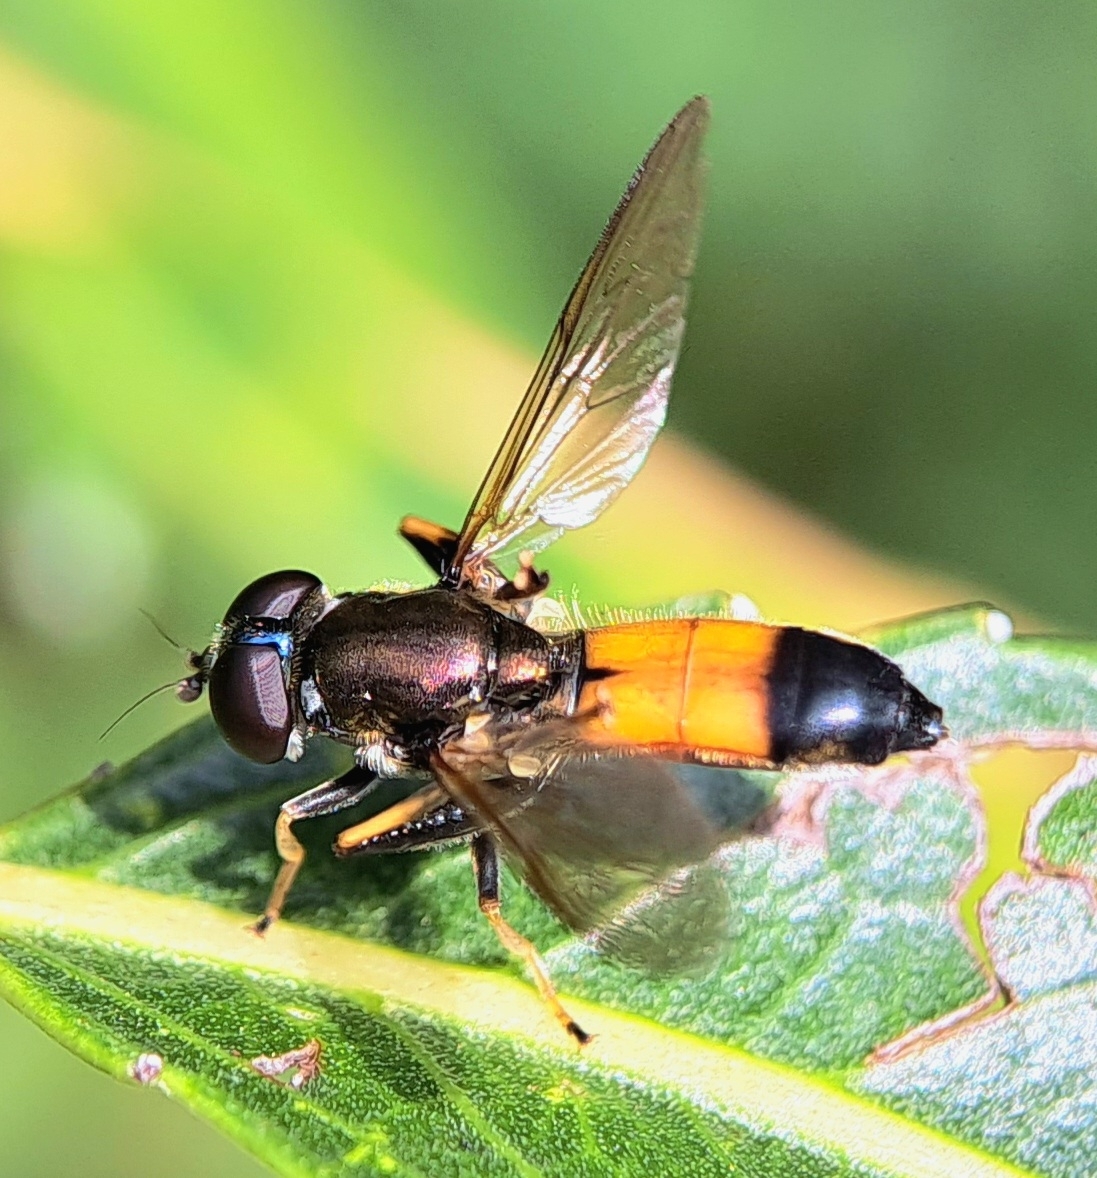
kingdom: Animalia
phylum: Arthropoda
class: Insecta
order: Diptera
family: Syrphidae
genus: Xylota
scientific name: Xylota segnis
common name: Brown-toed forest fly
